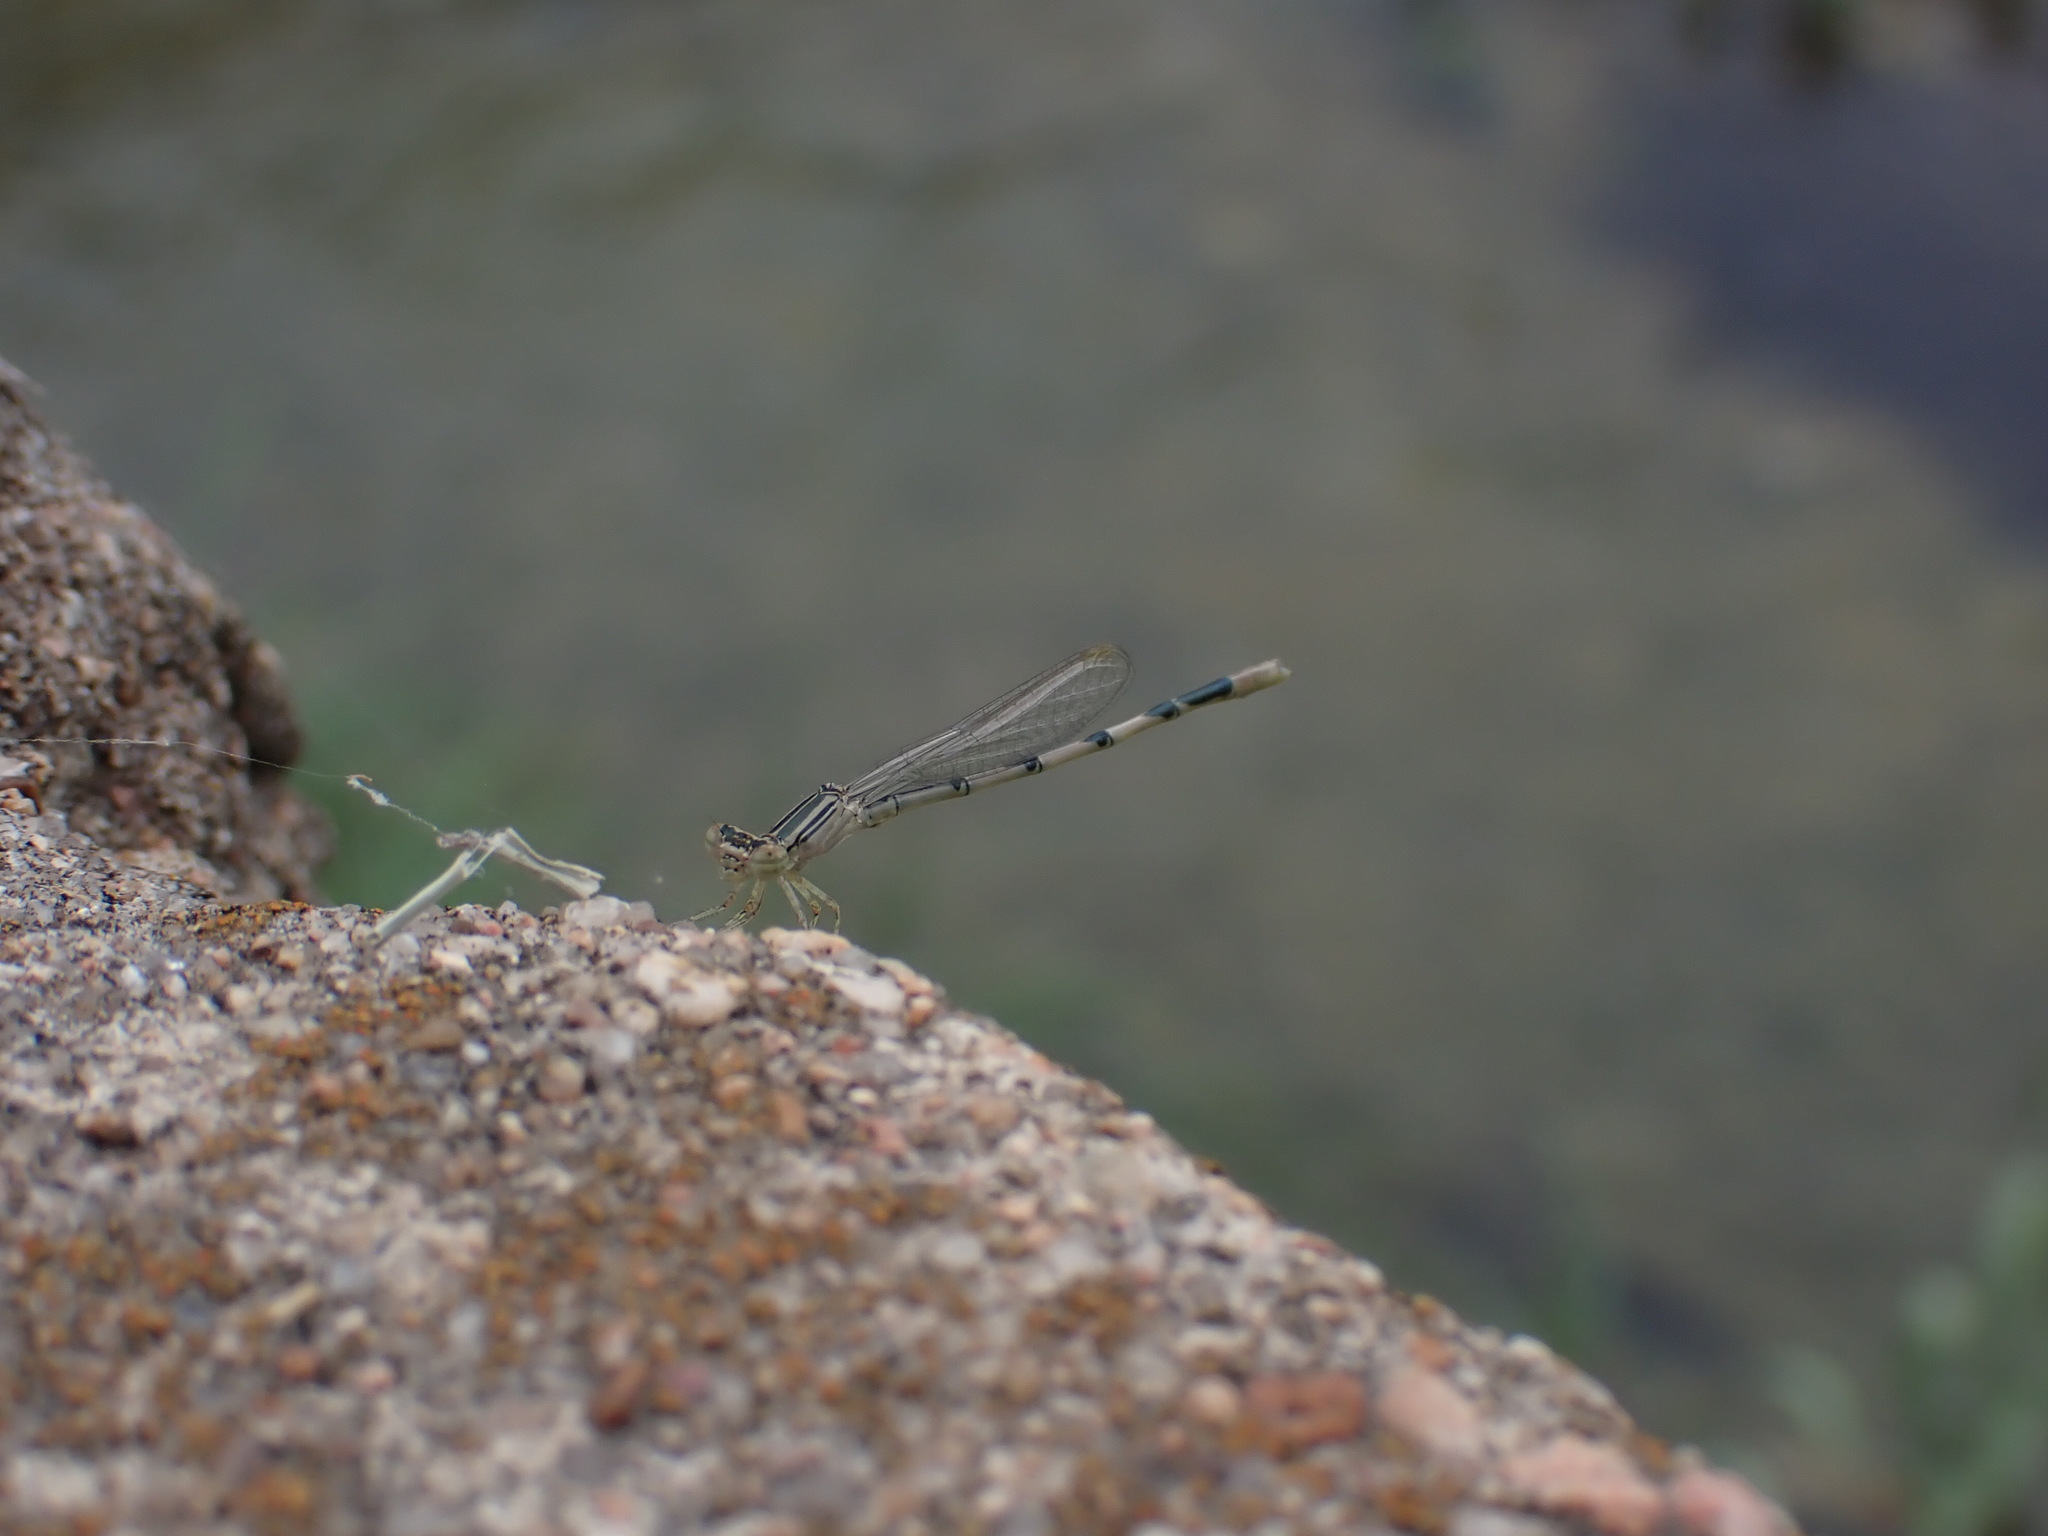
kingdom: Animalia
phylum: Arthropoda
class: Insecta
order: Odonata
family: Coenagrionidae
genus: Enallagma
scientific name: Enallagma basidens
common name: Double-striped bluet
